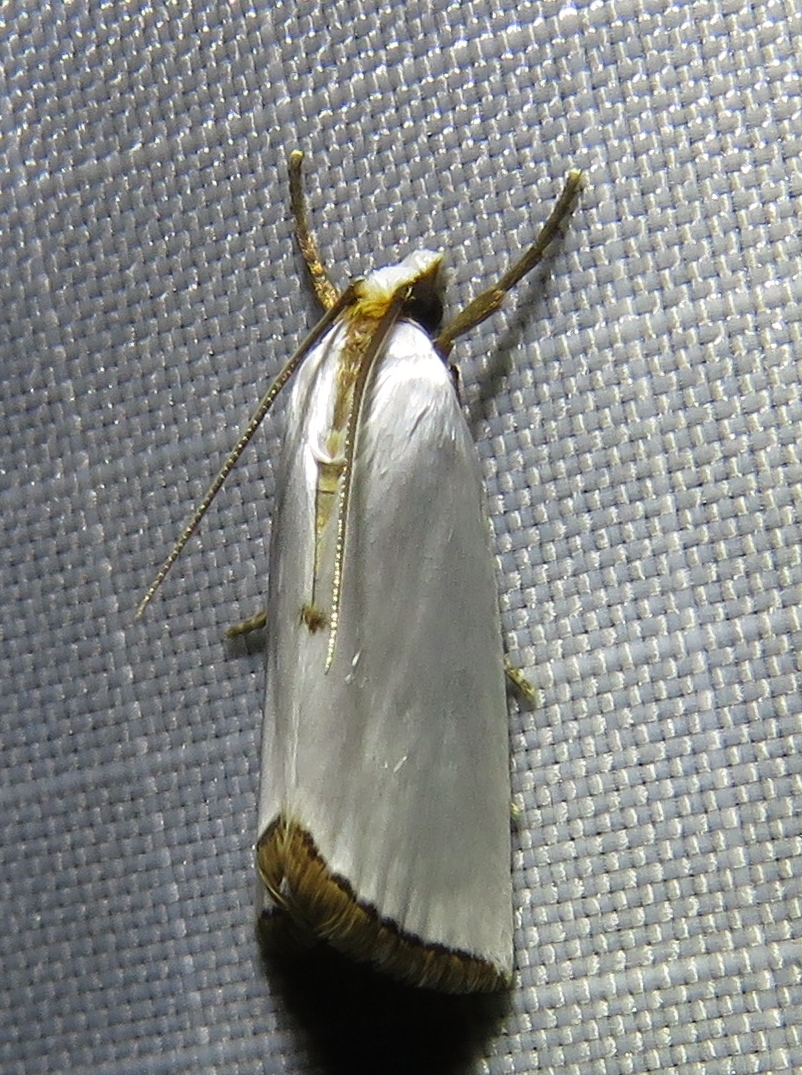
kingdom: Animalia
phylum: Arthropoda
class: Insecta
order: Lepidoptera
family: Crambidae
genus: Argyria
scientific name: Argyria nivalis
